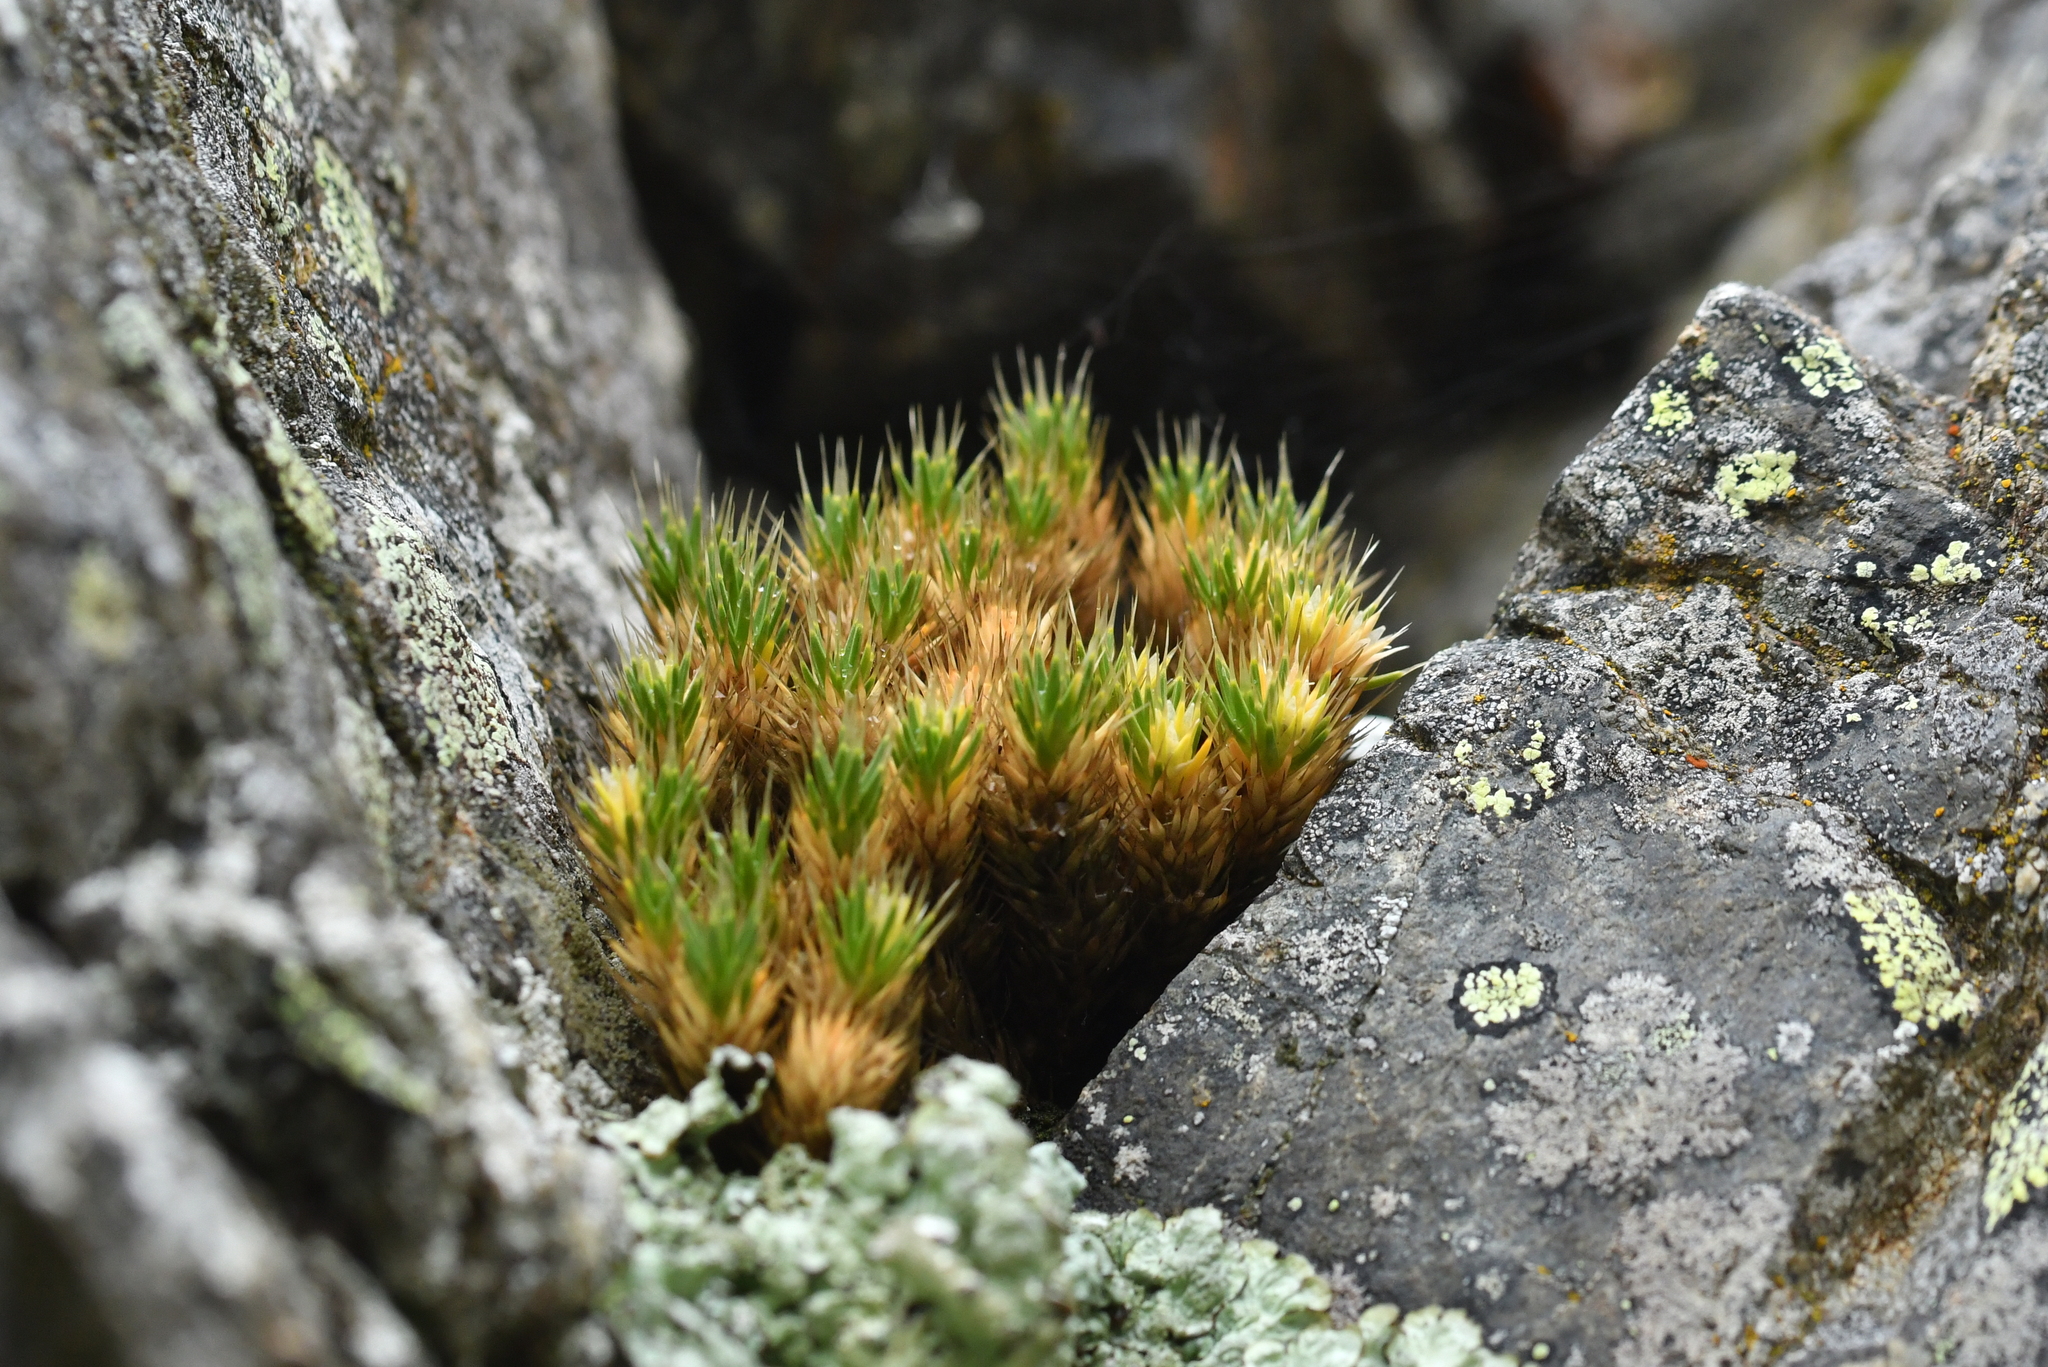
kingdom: Plantae
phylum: Tracheophyta
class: Magnoliopsida
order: Caryophyllales
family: Caryophyllaceae
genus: Colobanthus
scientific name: Colobanthus acicularis
